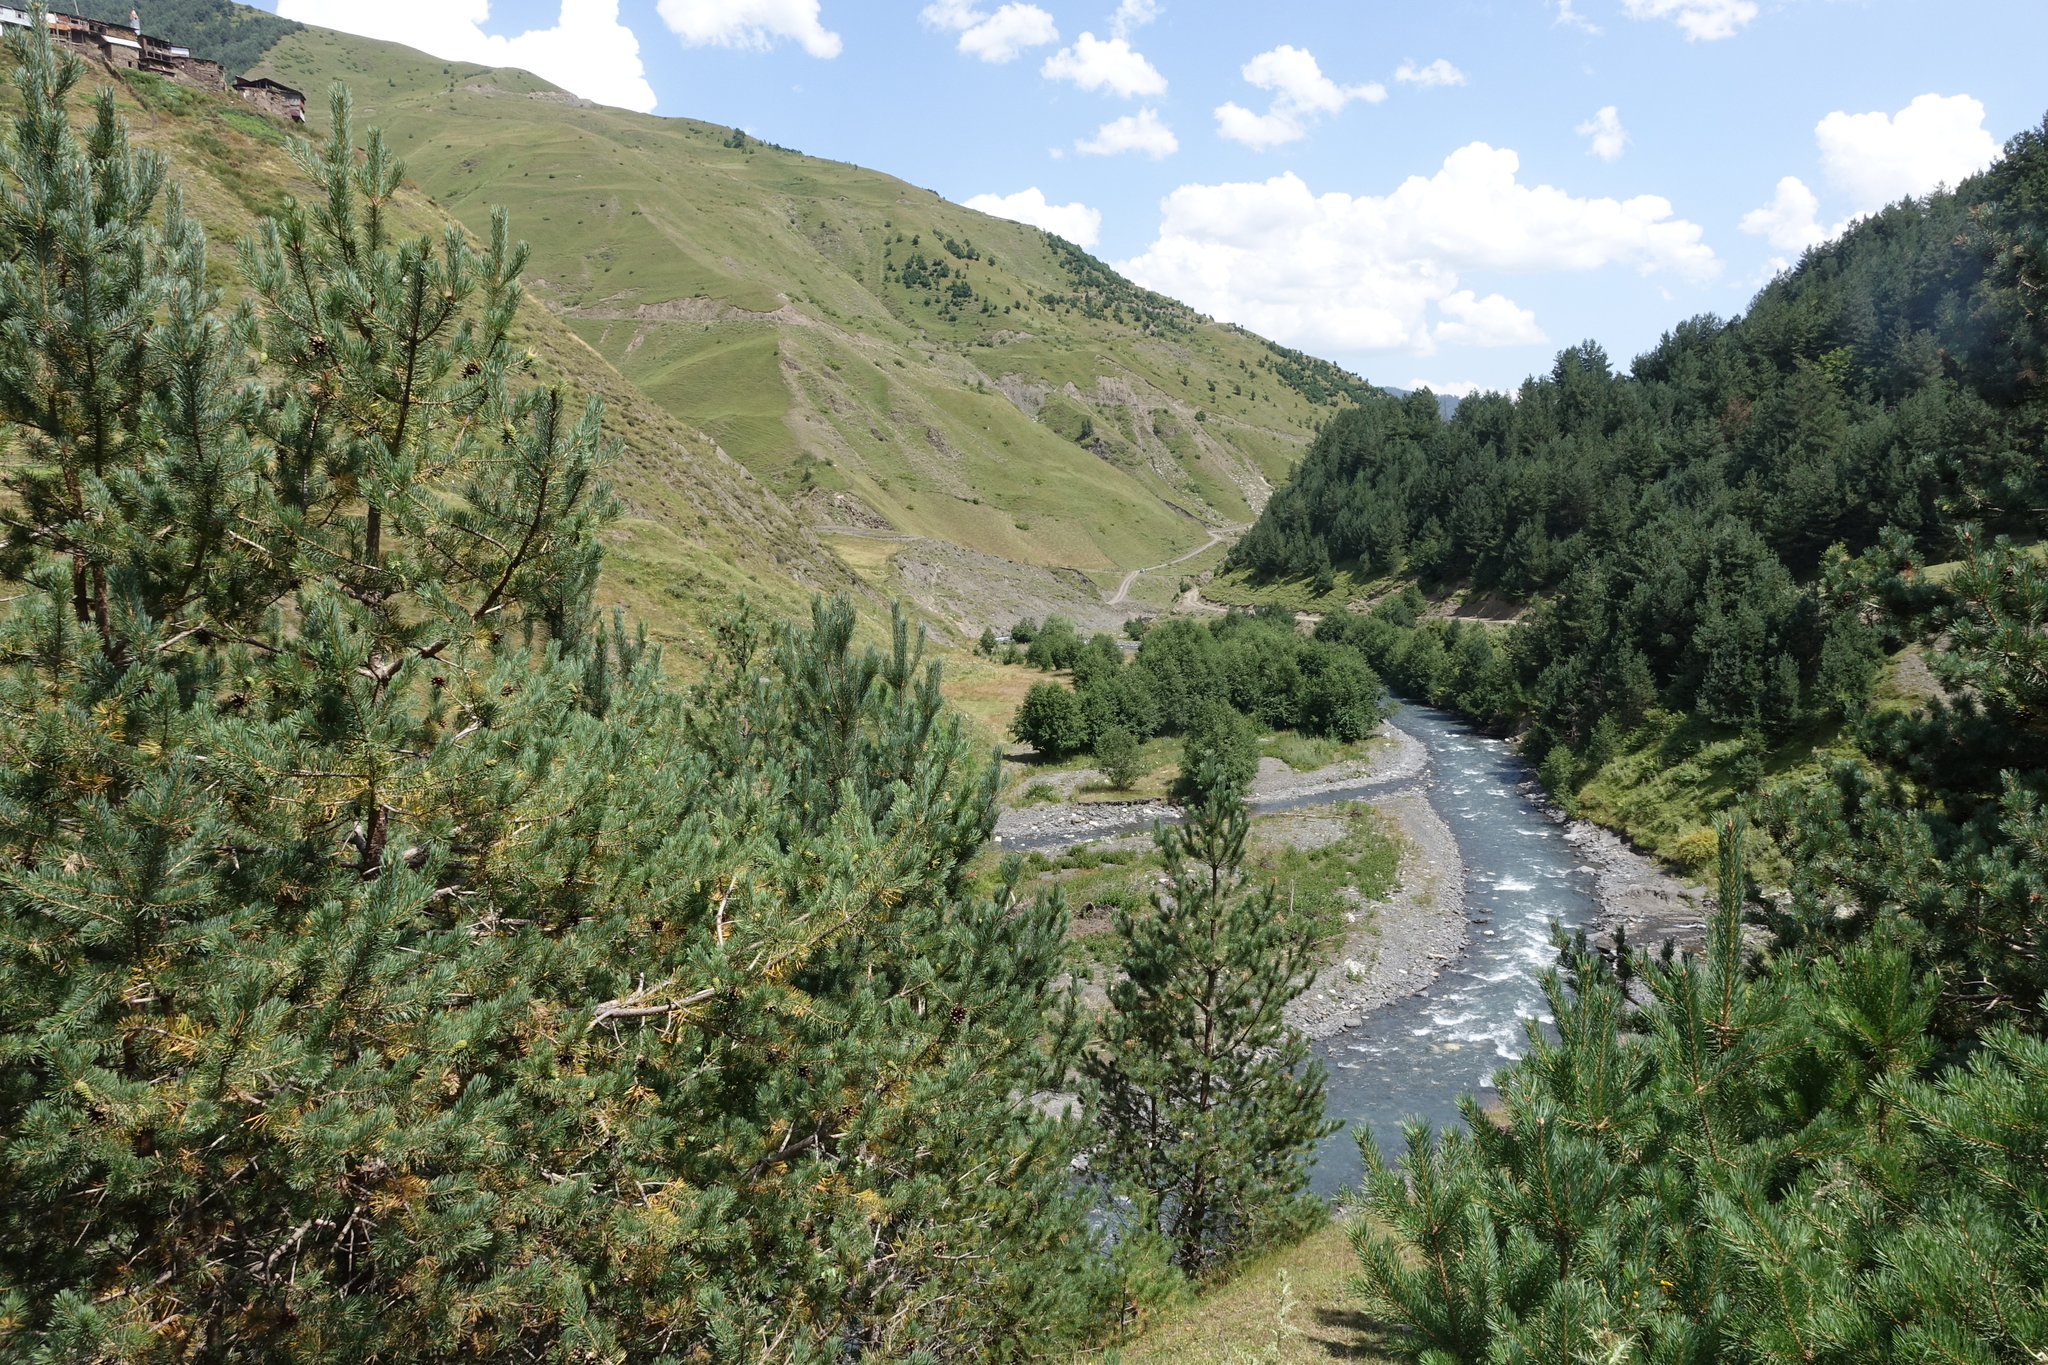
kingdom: Plantae
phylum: Tracheophyta
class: Pinopsida
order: Pinales
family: Pinaceae
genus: Pinus
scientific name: Pinus sylvestris
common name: Scots pine
